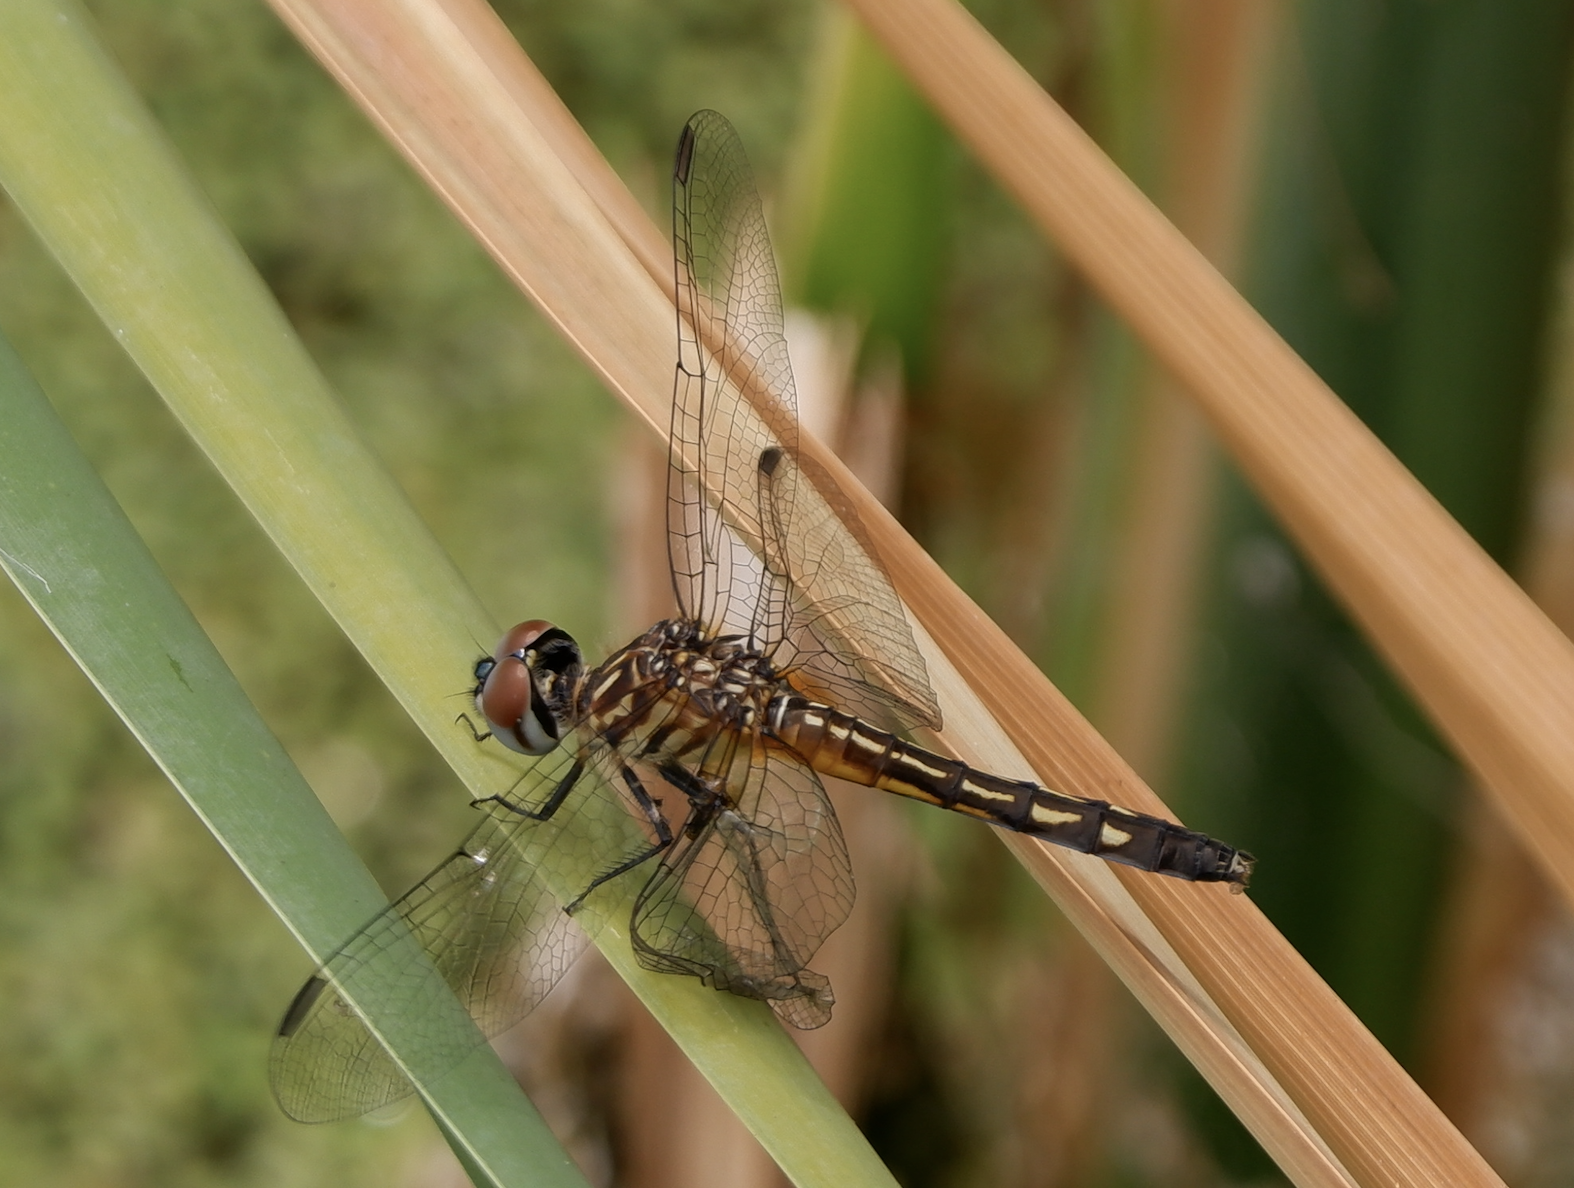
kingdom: Animalia
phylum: Arthropoda
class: Insecta
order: Odonata
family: Libellulidae
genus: Pachydiplax
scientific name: Pachydiplax longipennis
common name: Blue dasher
